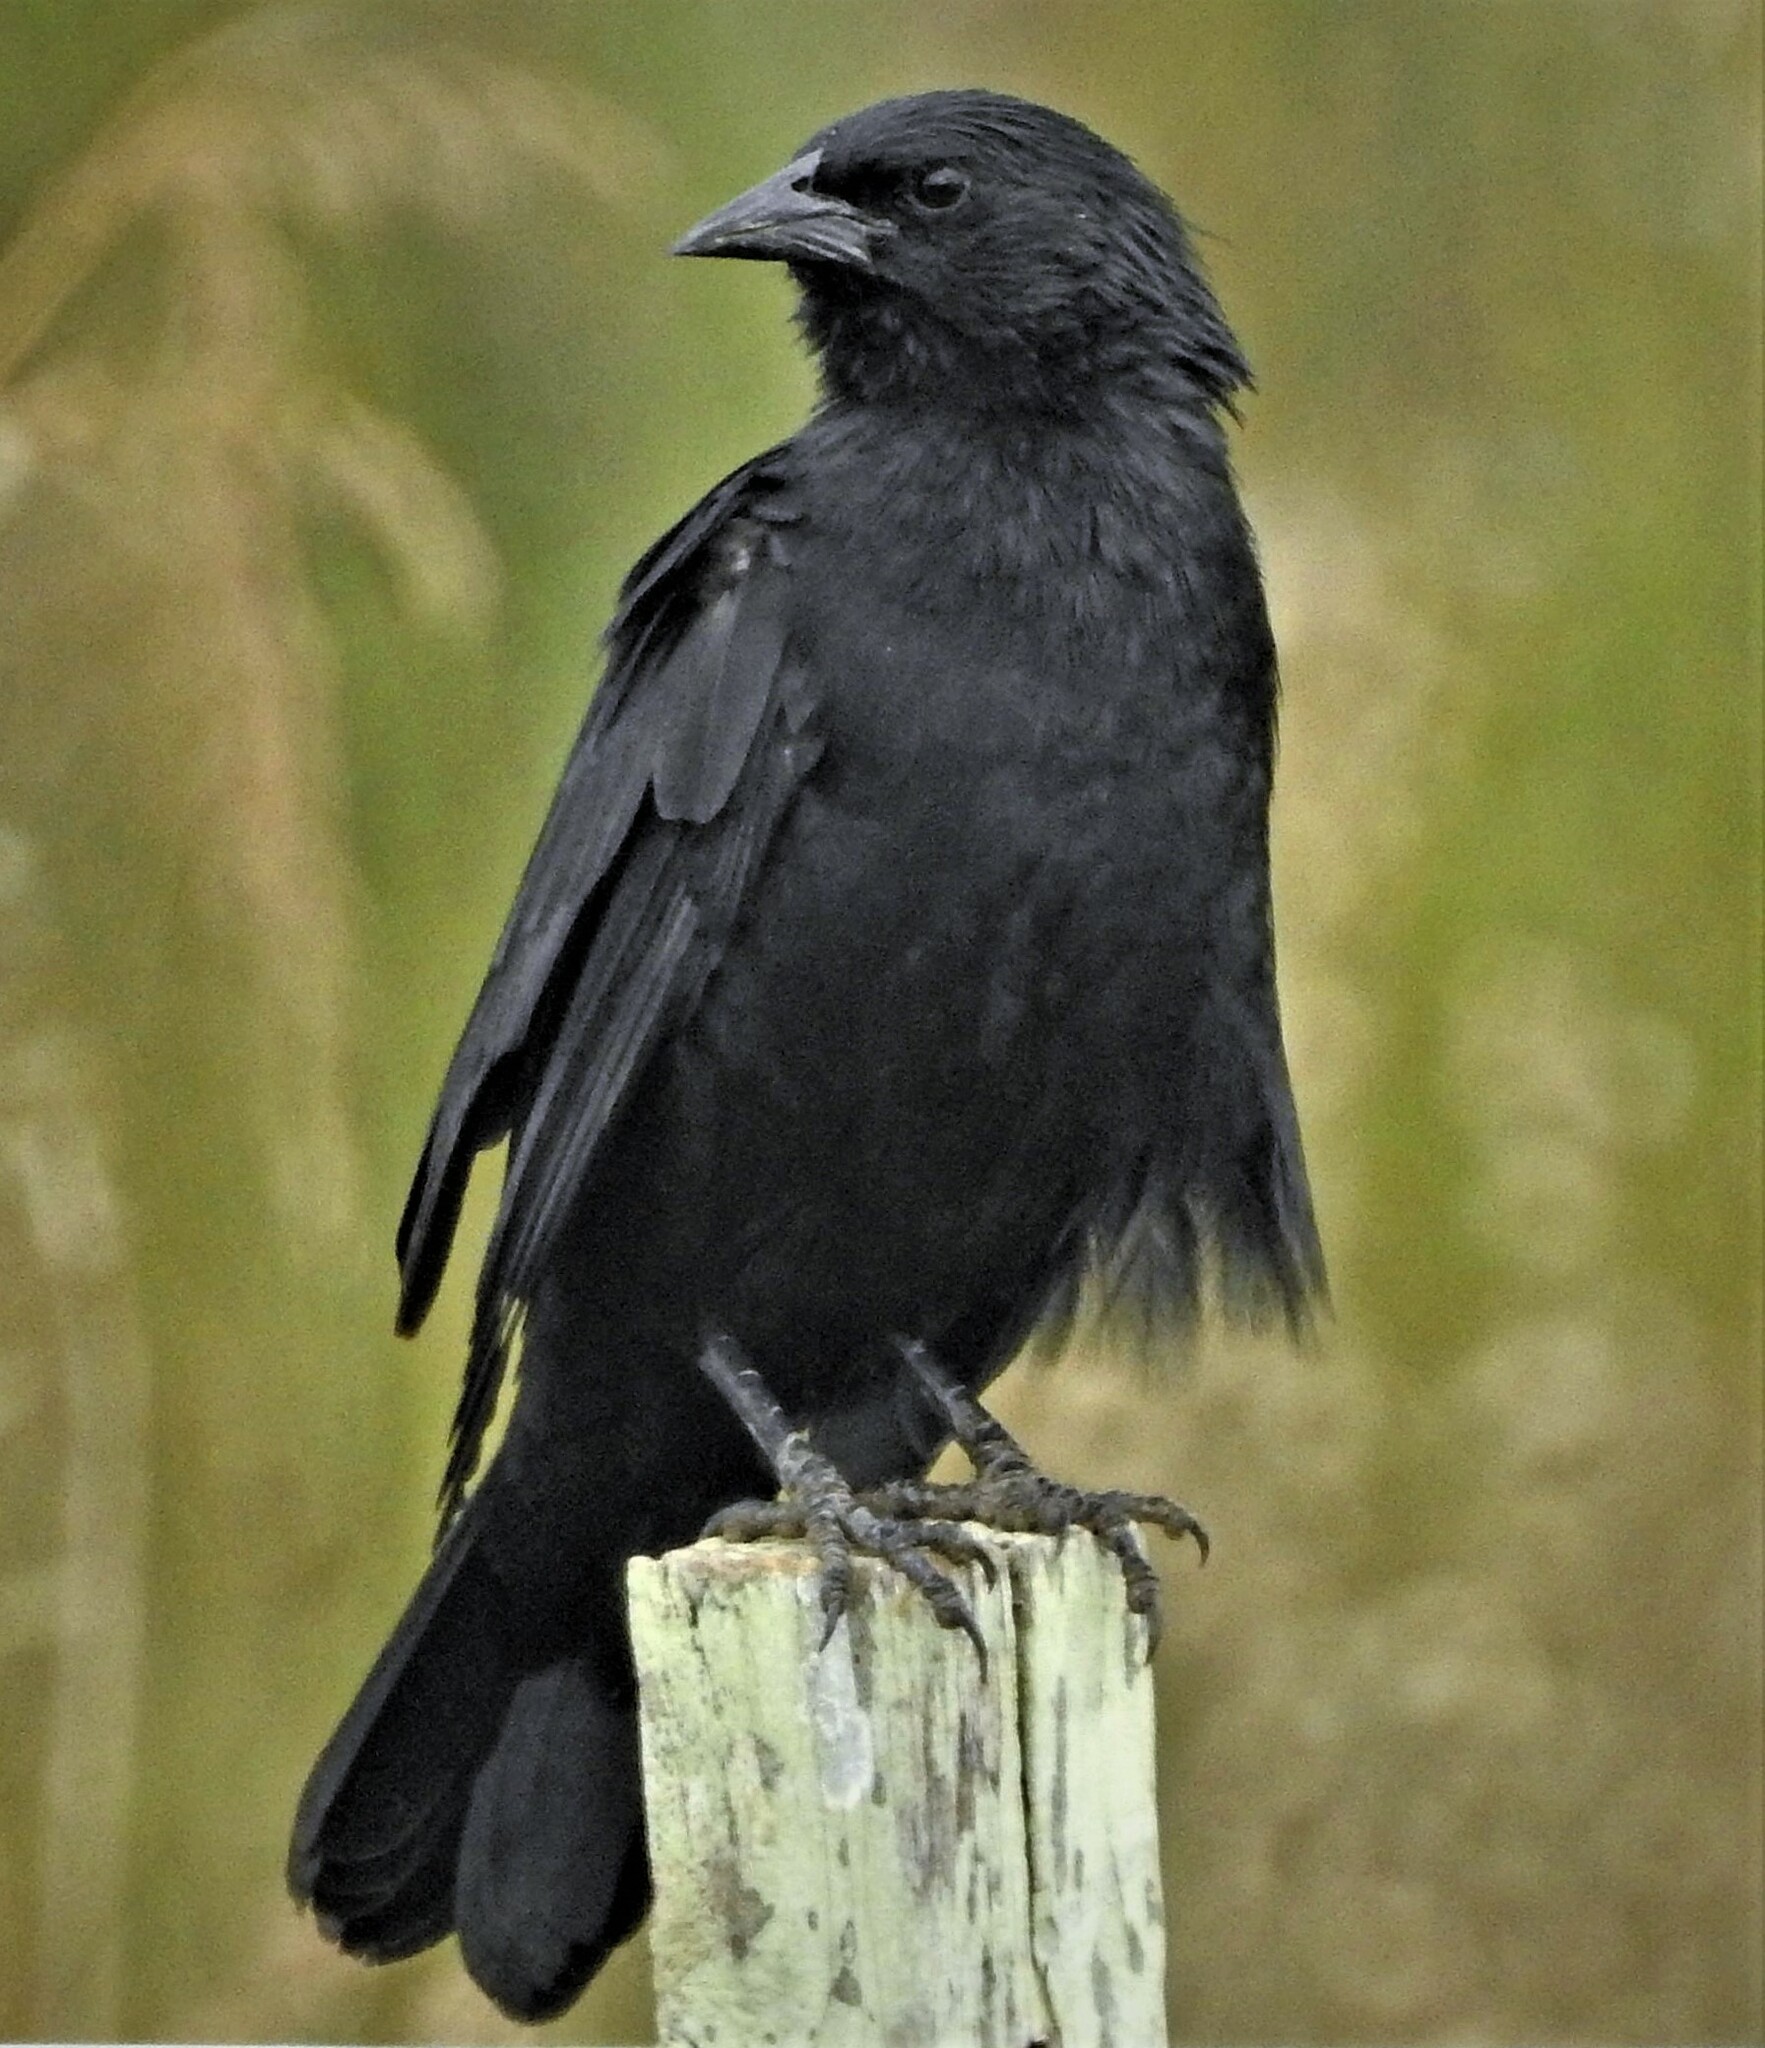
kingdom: Animalia
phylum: Chordata
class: Aves
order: Passeriformes
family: Icteridae
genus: Gnorimopsar
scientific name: Gnorimopsar chopi
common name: Chopi blackbird
